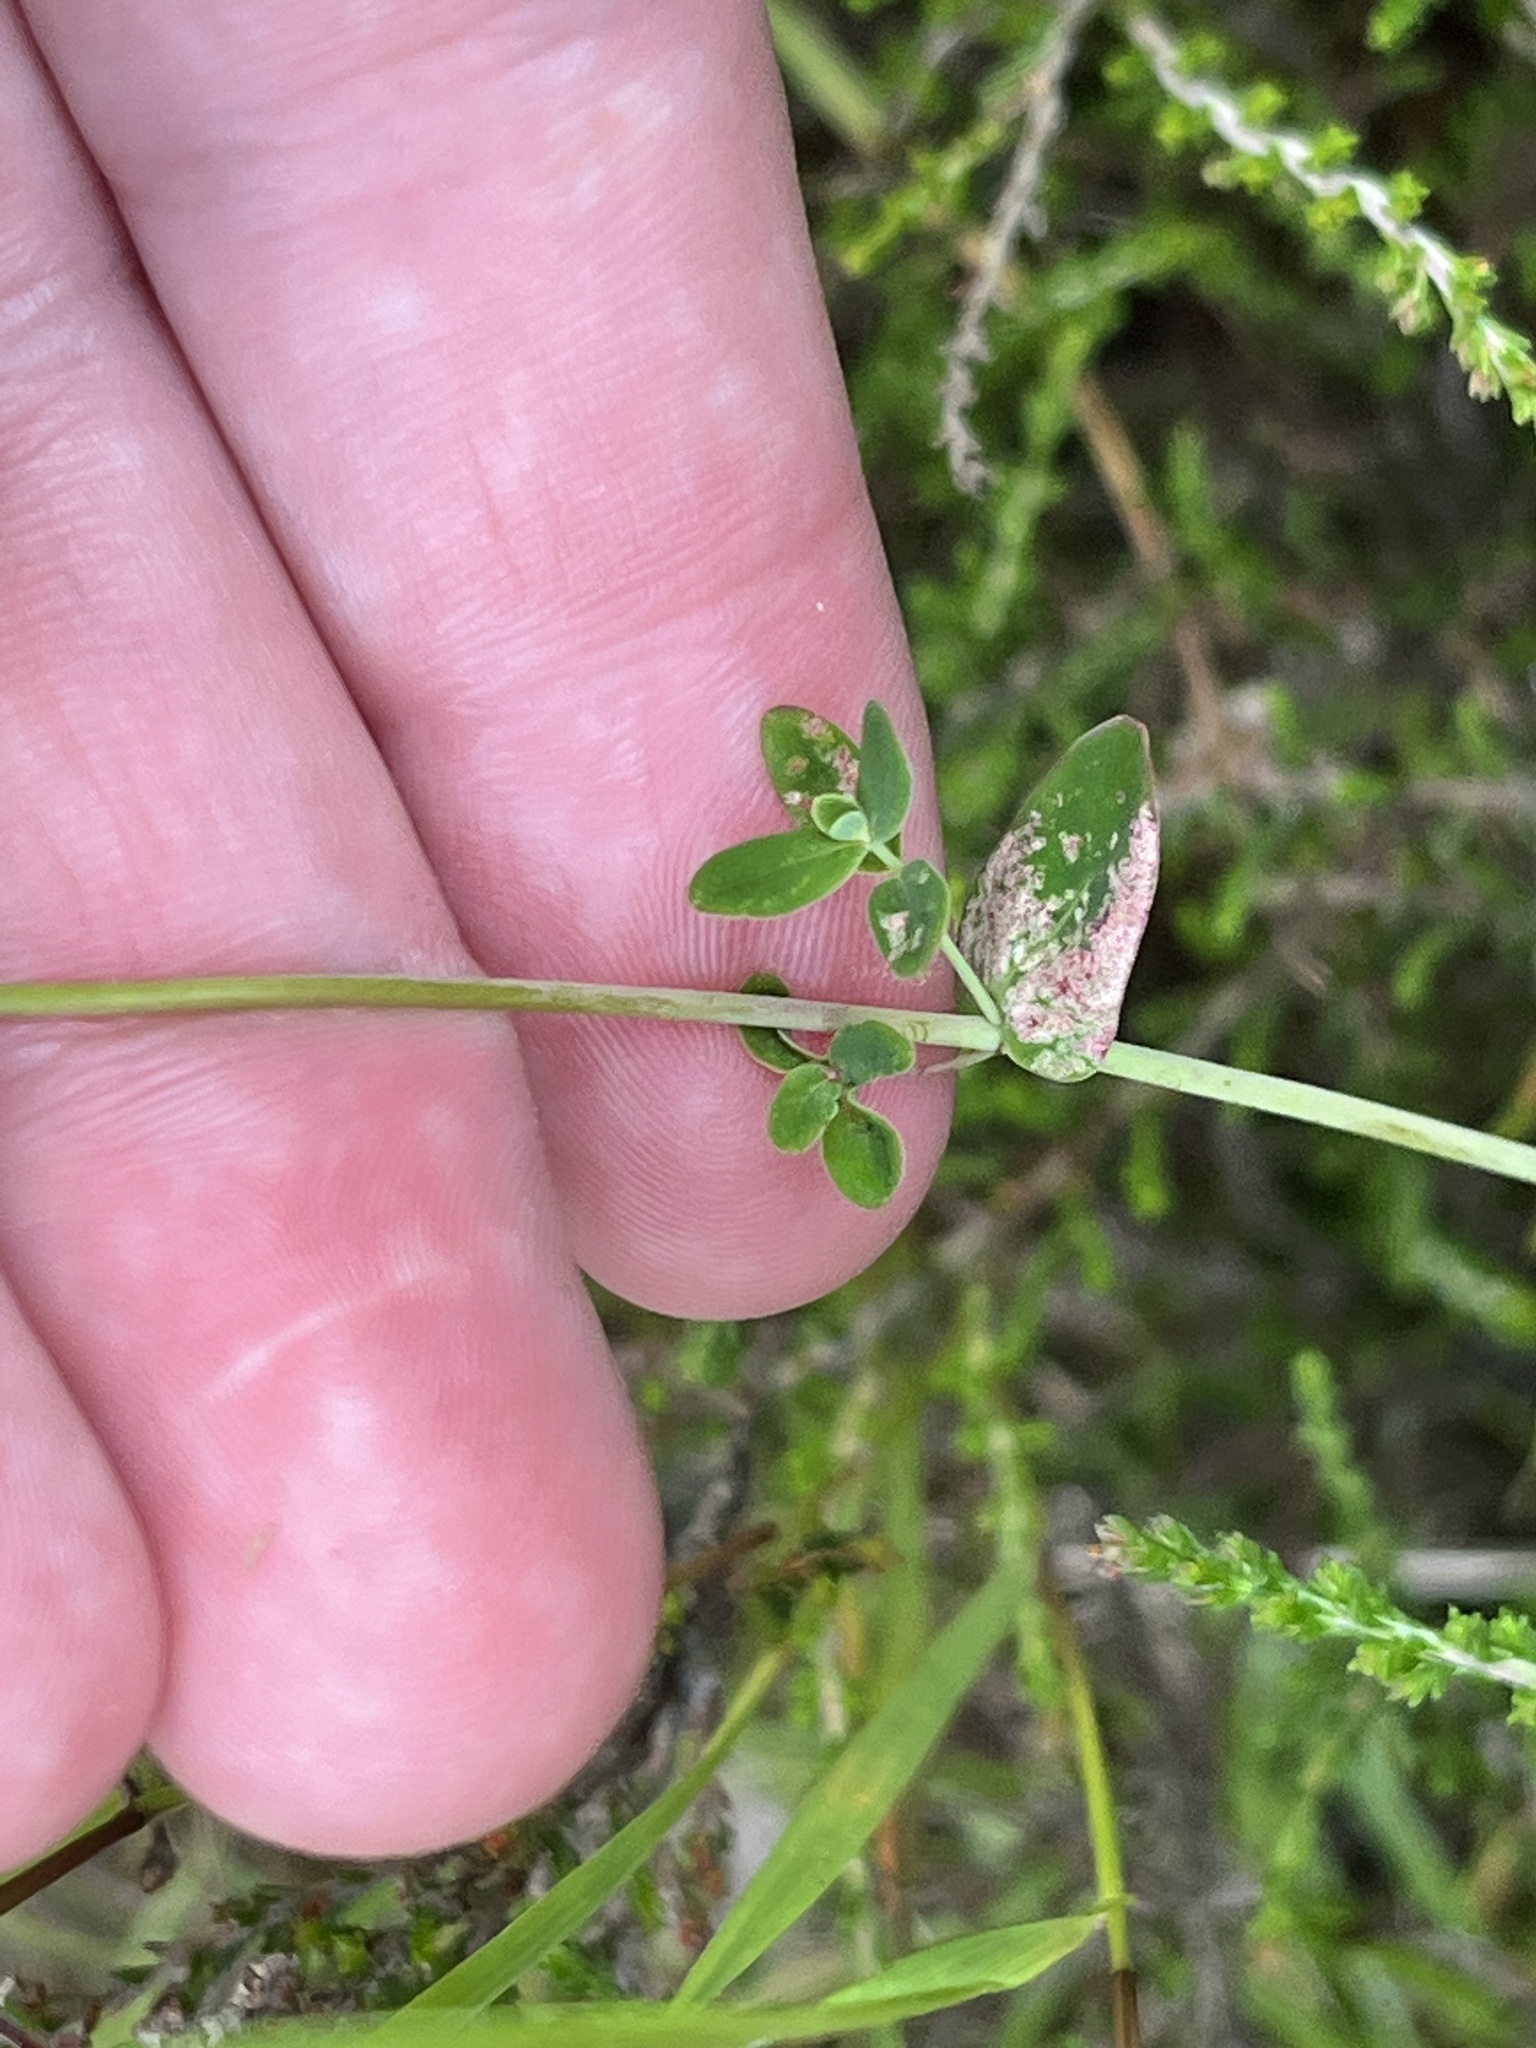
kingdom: Plantae
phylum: Tracheophyta
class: Magnoliopsida
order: Malpighiales
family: Hypericaceae
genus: Hypericum
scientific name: Hypericum pulchrum
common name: Slender st. john's-wort
